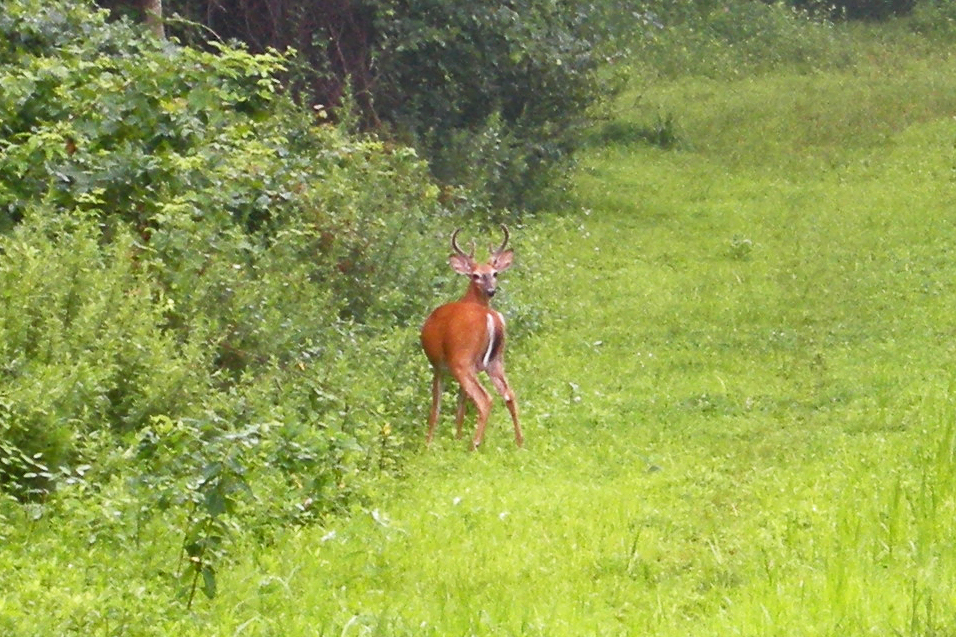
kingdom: Animalia
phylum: Chordata
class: Mammalia
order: Artiodactyla
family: Cervidae
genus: Odocoileus
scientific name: Odocoileus virginianus
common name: White-tailed deer
